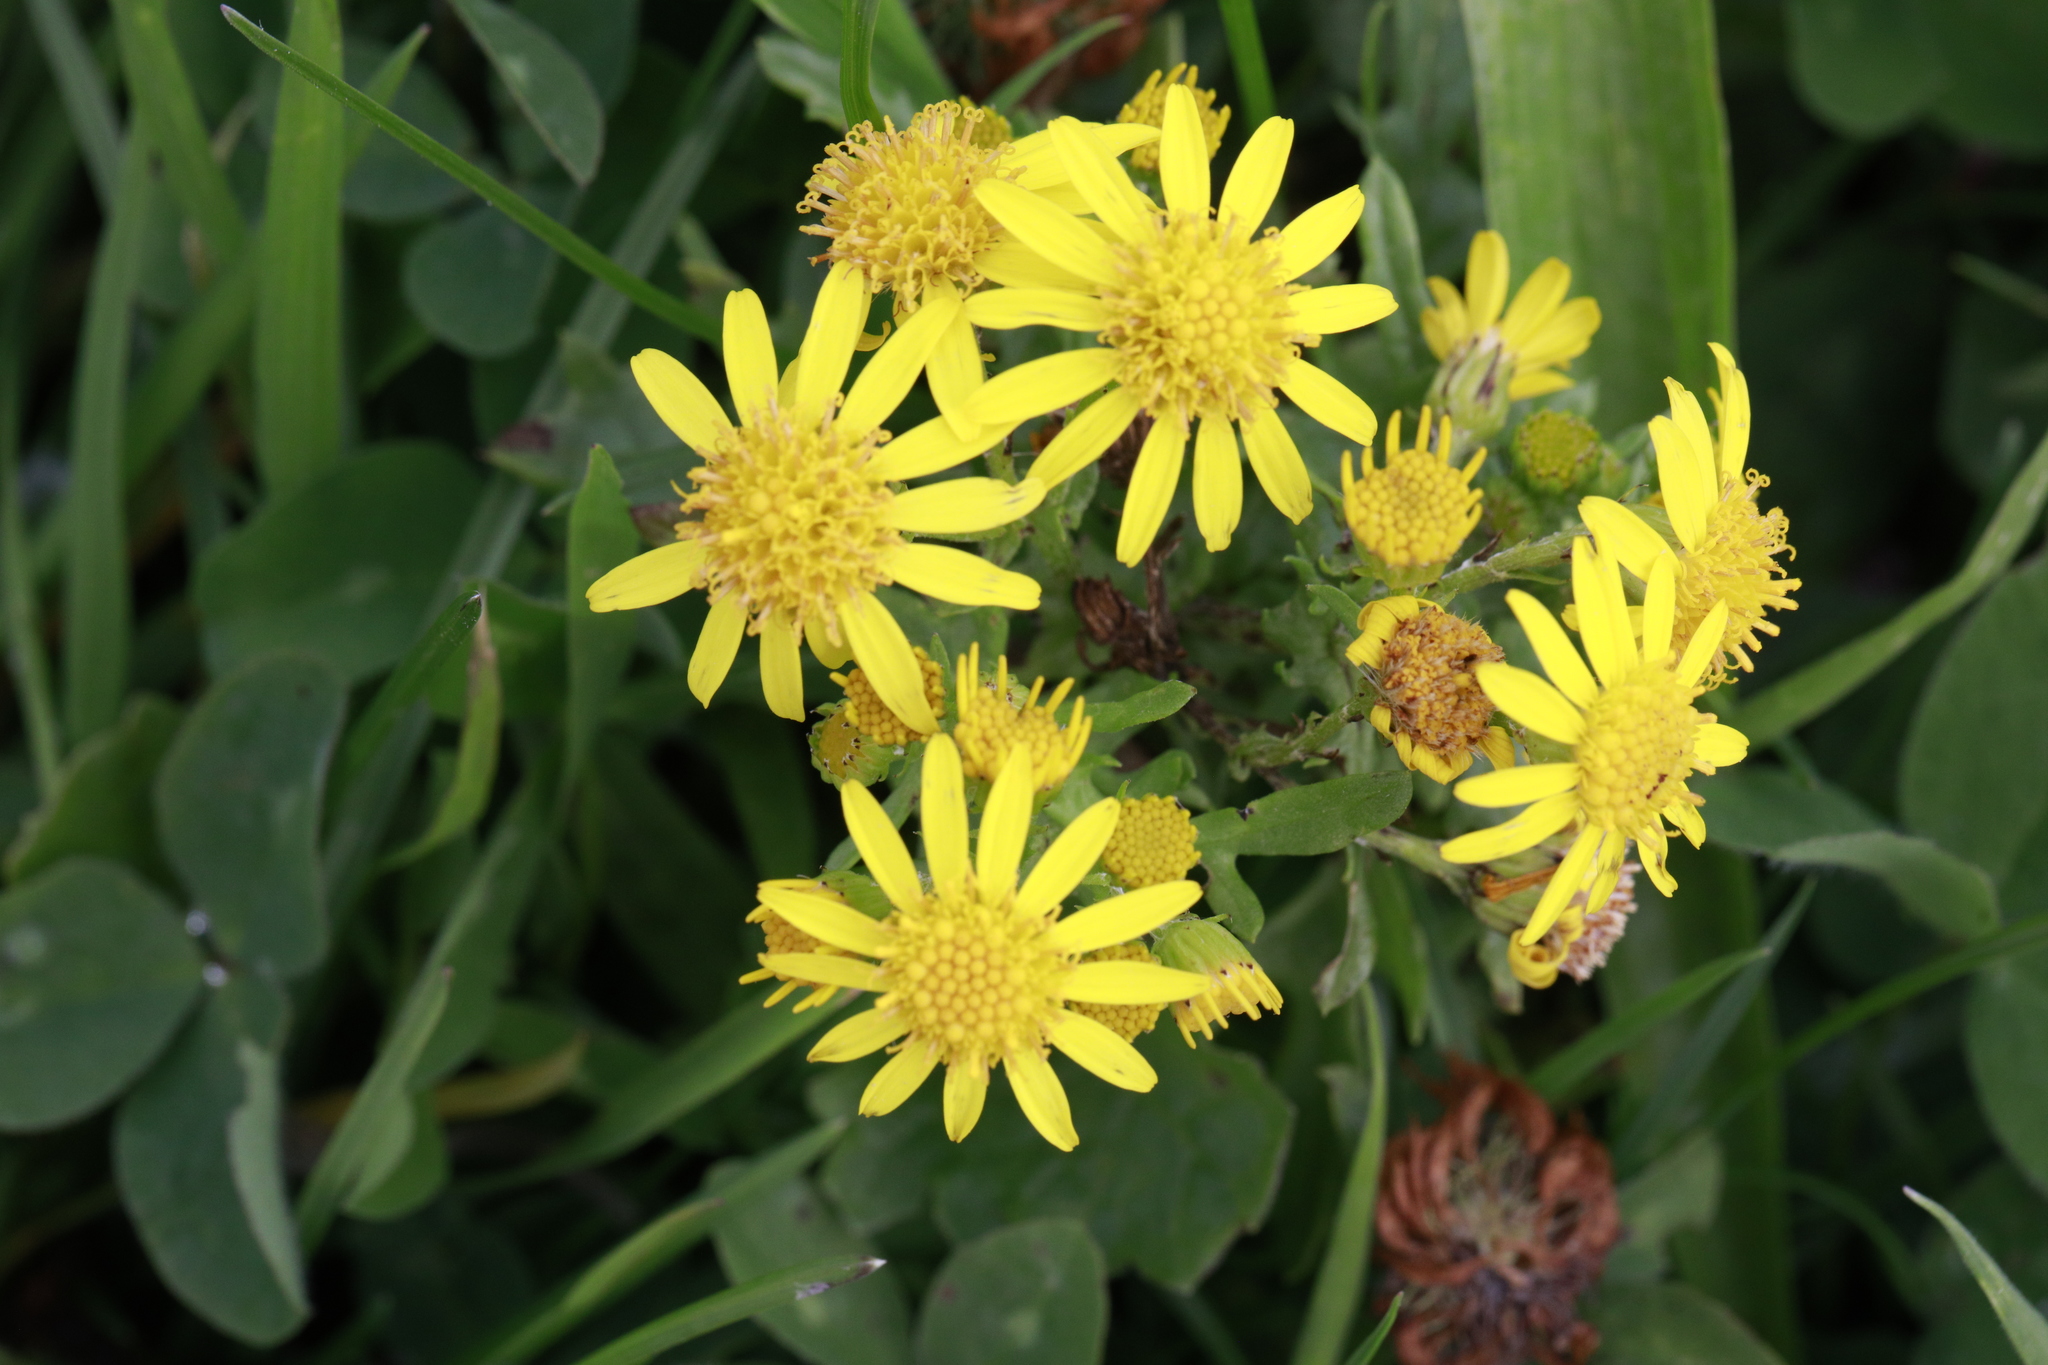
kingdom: Plantae
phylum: Tracheophyta
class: Magnoliopsida
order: Asterales
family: Asteraceae
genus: Jacobaea
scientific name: Jacobaea vulgaris
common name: Stinking willie
